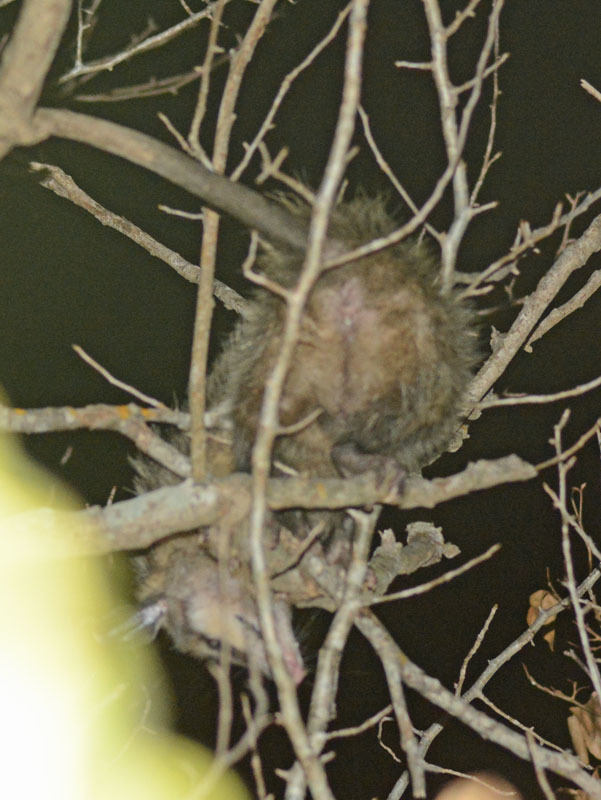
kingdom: Animalia
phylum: Chordata
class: Mammalia
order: Didelphimorphia
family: Didelphidae
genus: Didelphis
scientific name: Didelphis virginiana
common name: Virginia opossum
